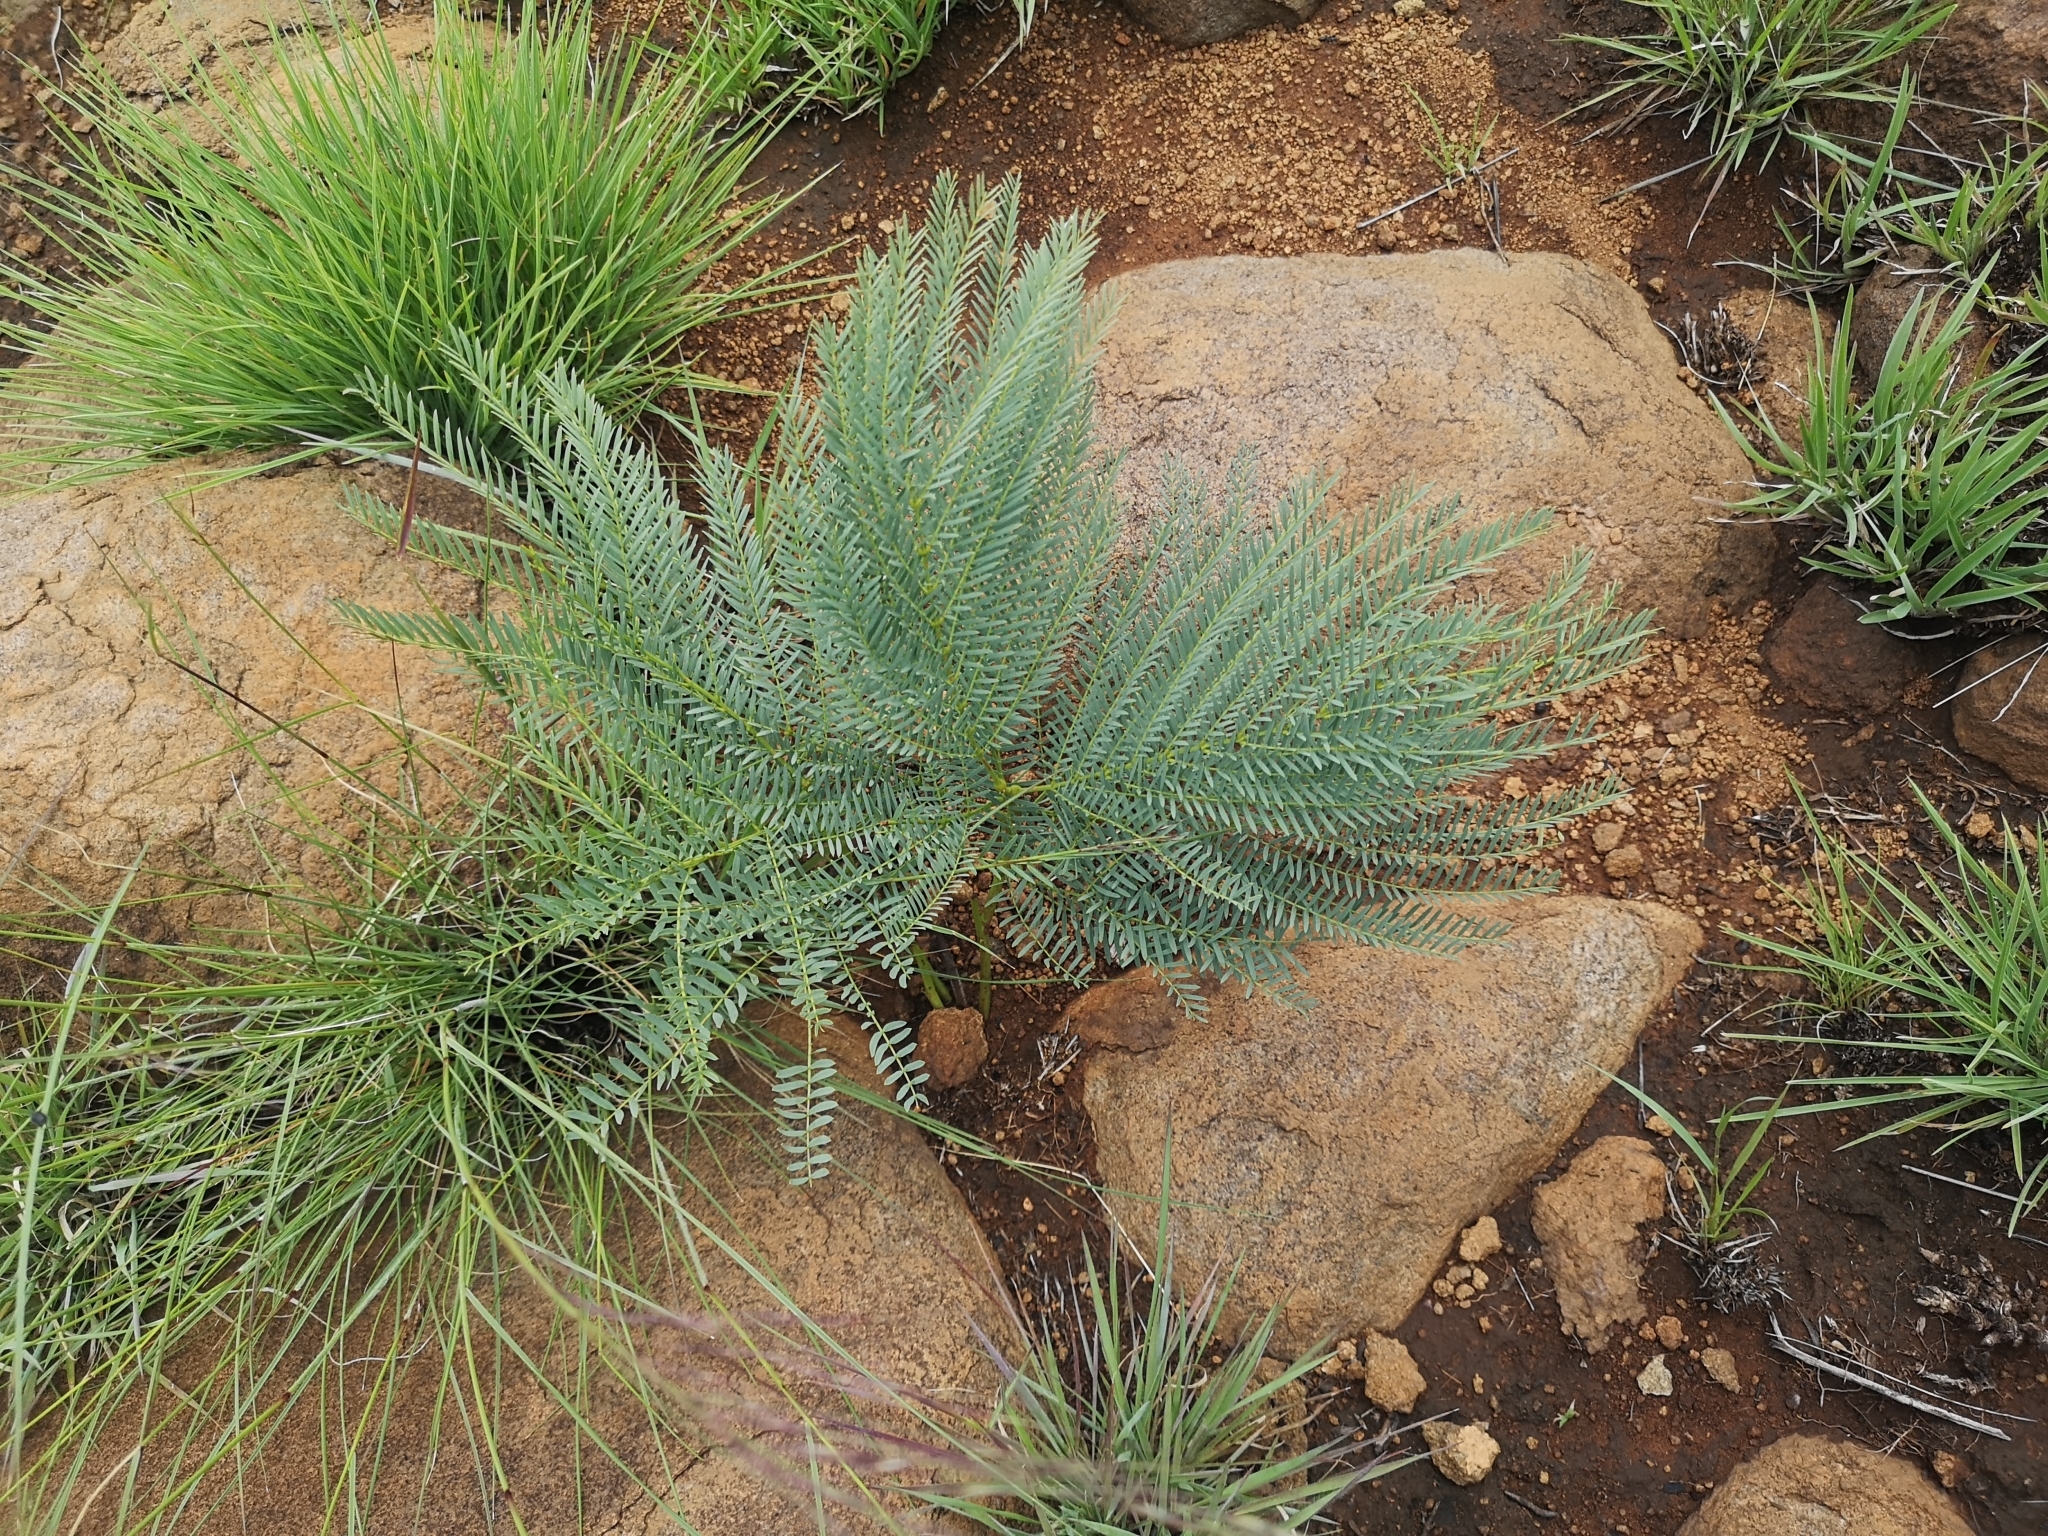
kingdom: Plantae
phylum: Tracheophyta
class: Magnoliopsida
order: Fabales
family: Fabaceae
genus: Elephantorrhiza
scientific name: Elephantorrhiza elephantina
